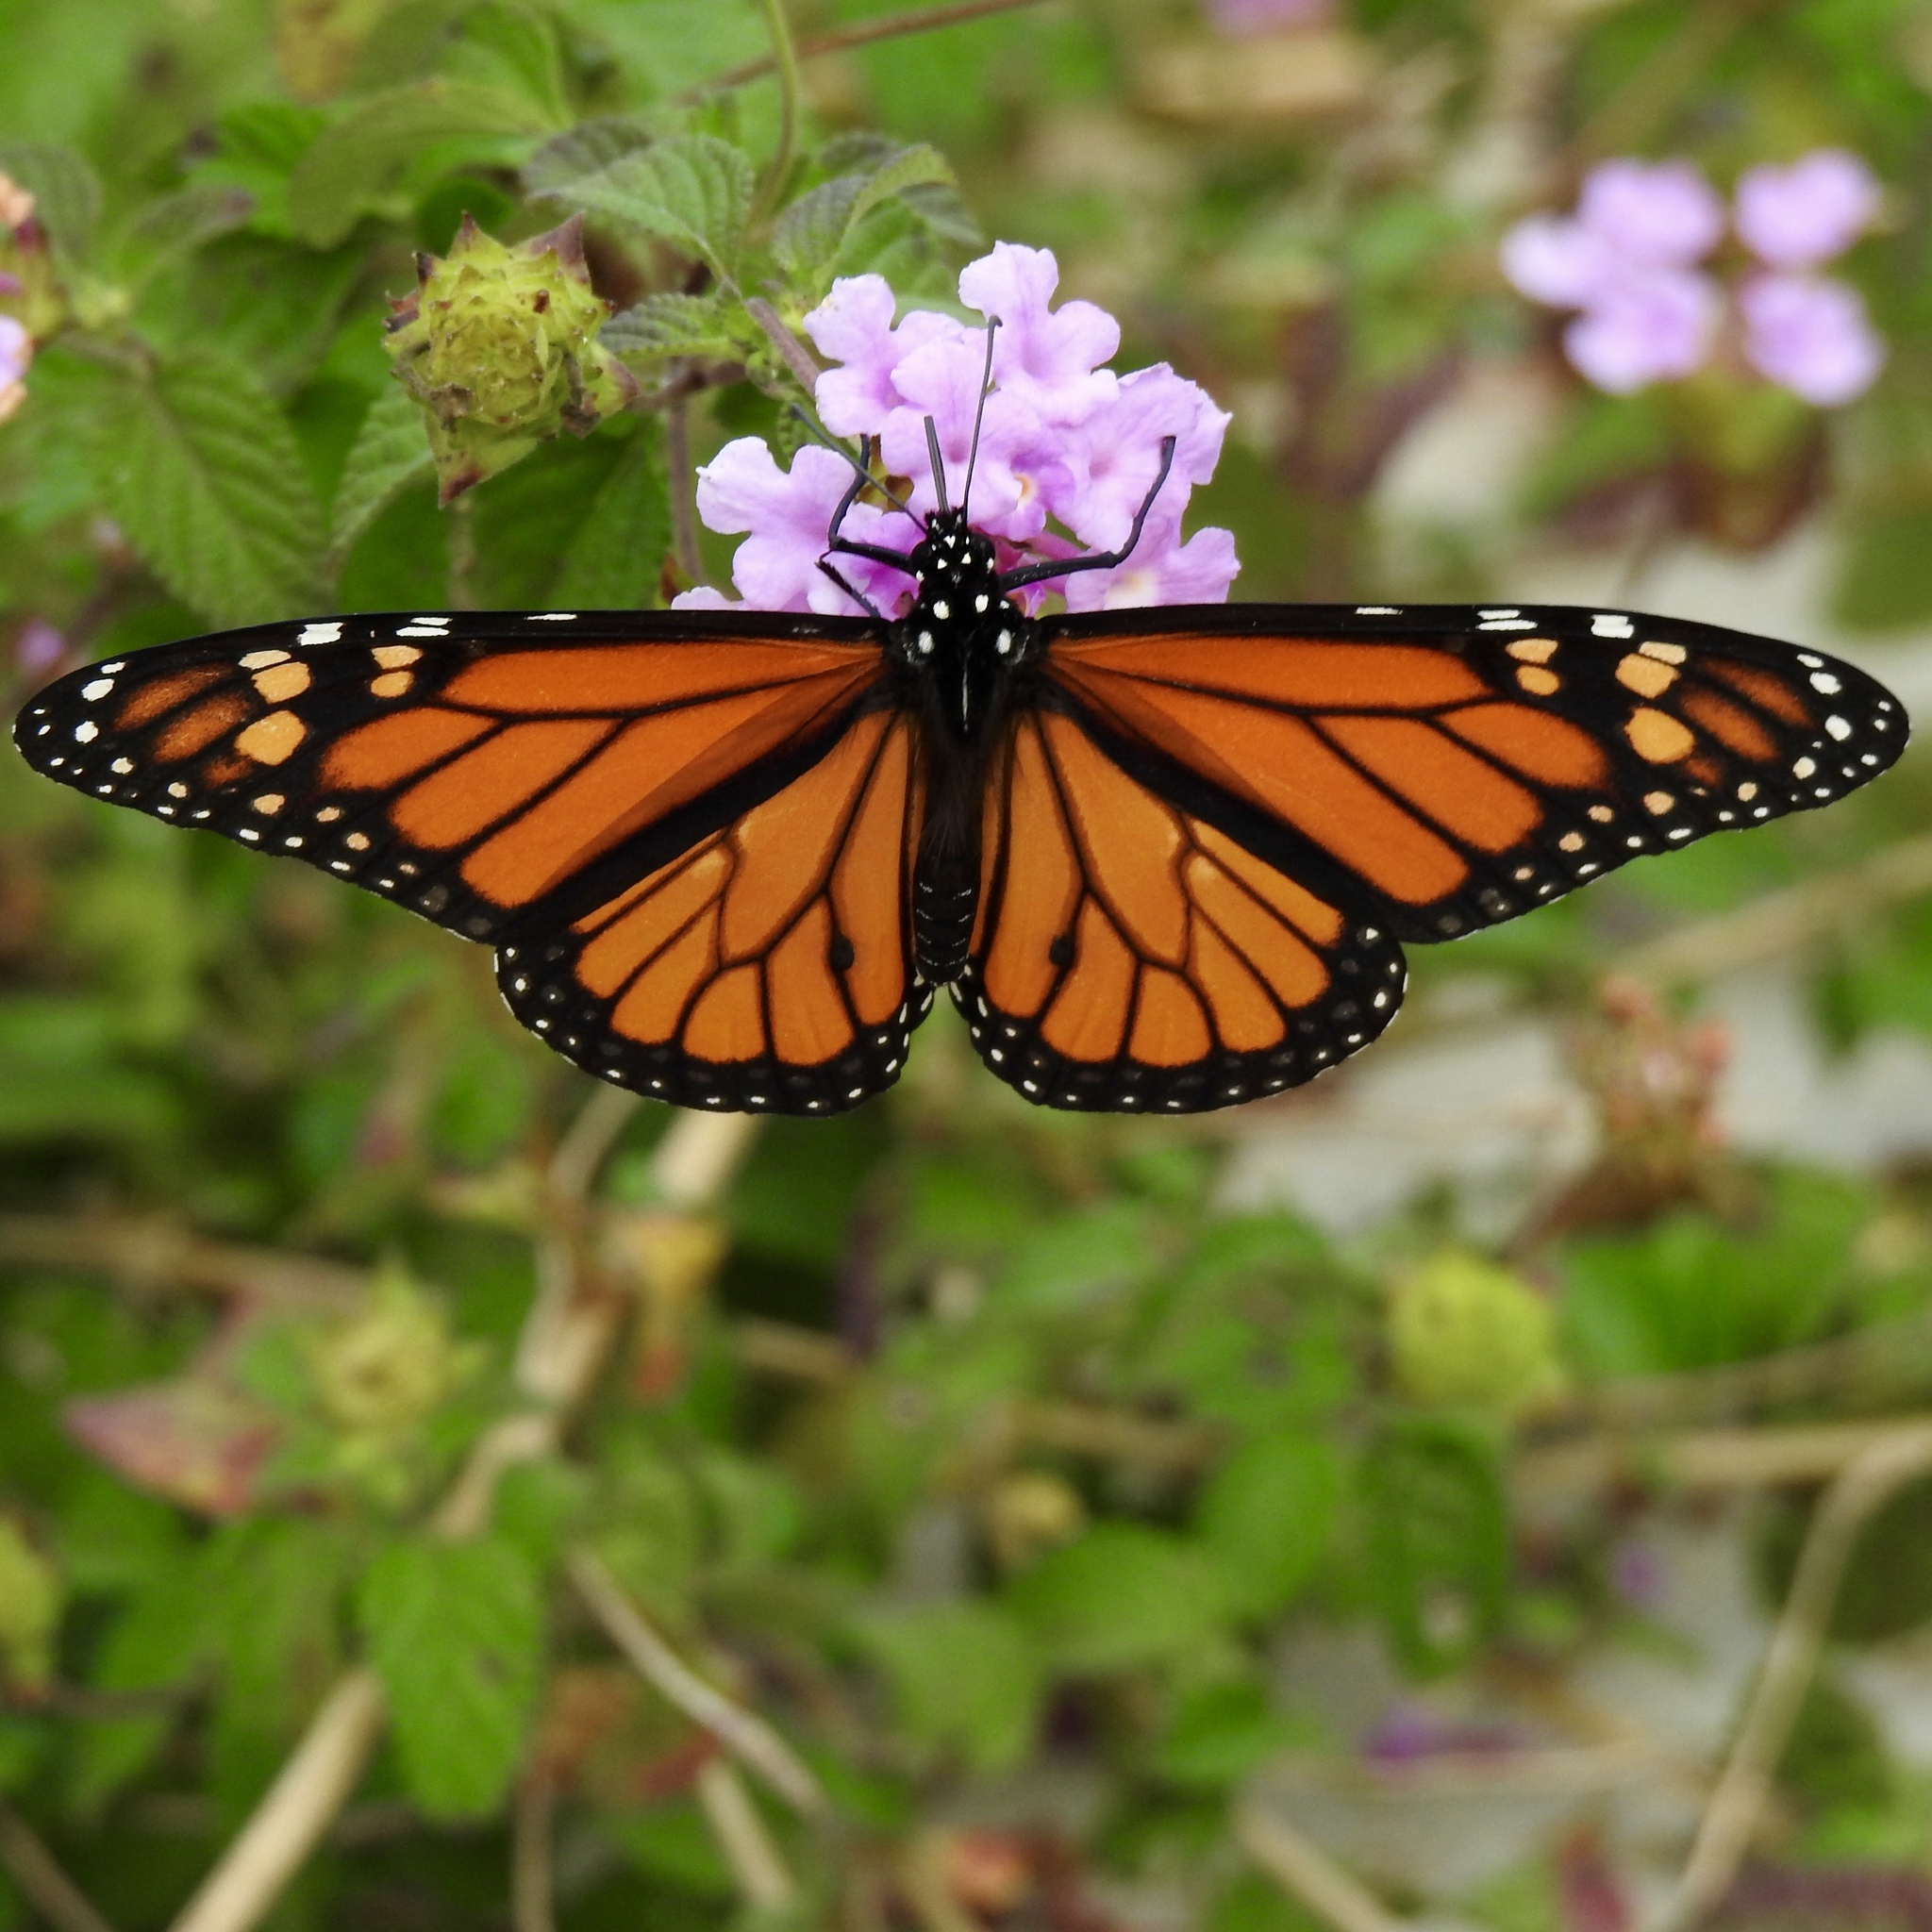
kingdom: Animalia
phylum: Arthropoda
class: Insecta
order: Lepidoptera
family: Nymphalidae
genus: Danaus
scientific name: Danaus plexippus
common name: Monarch
